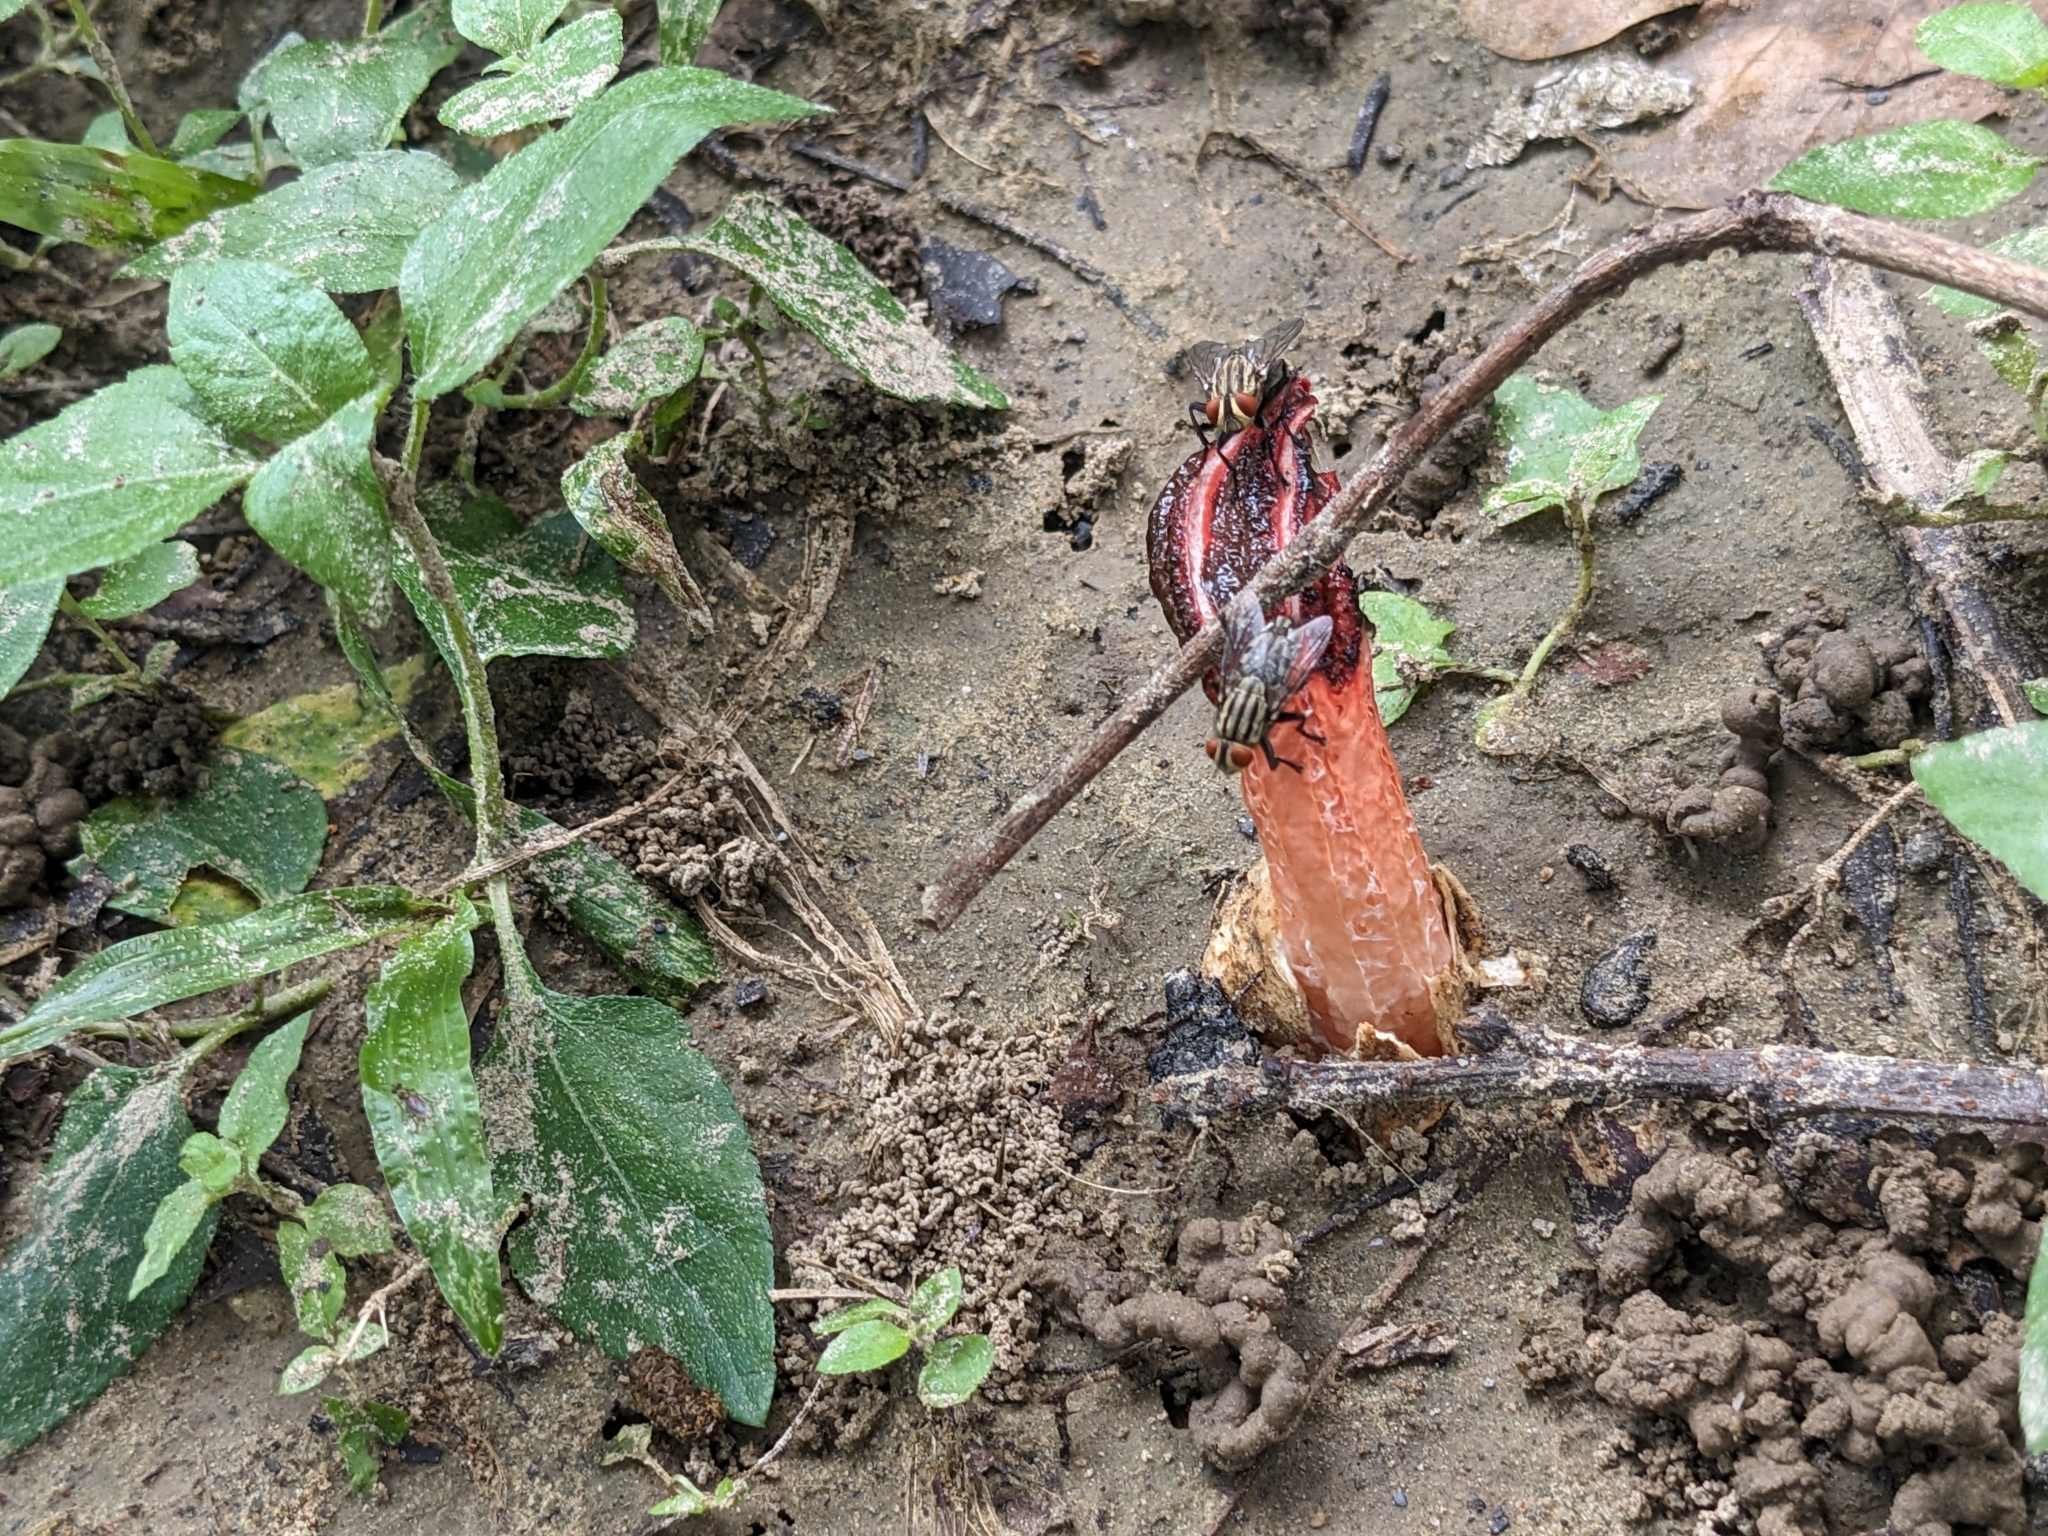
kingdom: Fungi
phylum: Basidiomycota
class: Agaricomycetes
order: Phallales
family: Phallaceae
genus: Lysurus
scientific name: Lysurus mokusin
